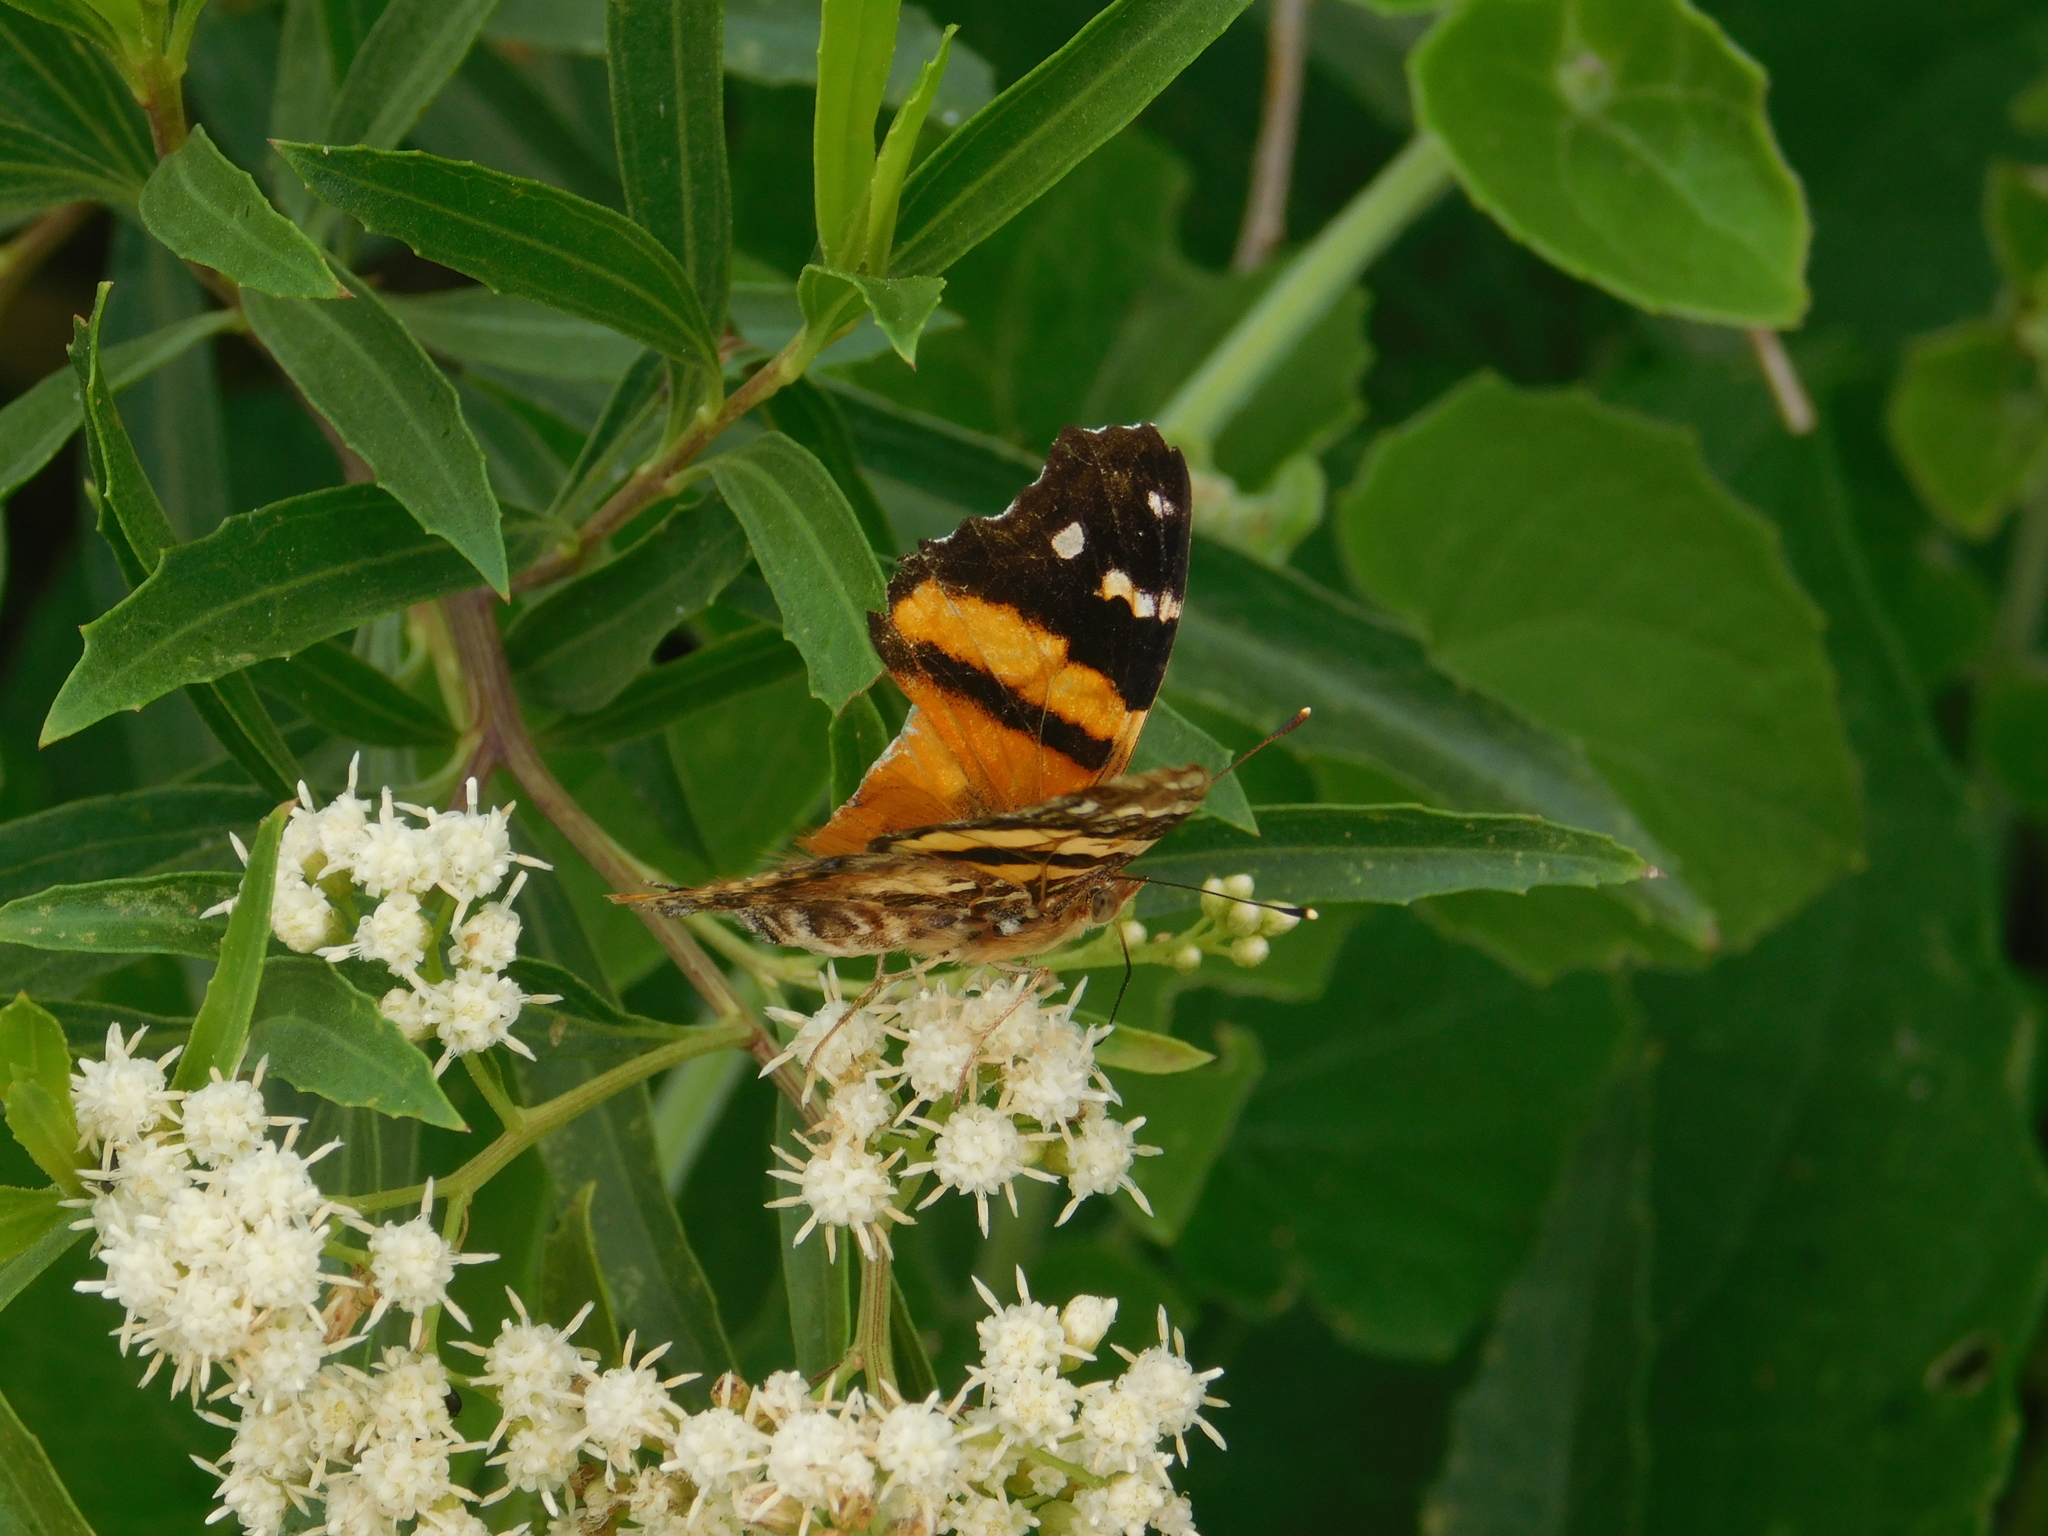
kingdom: Animalia
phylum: Arthropoda
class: Insecta
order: Lepidoptera
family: Nymphalidae
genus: Hypanartia
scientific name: Hypanartia bella
